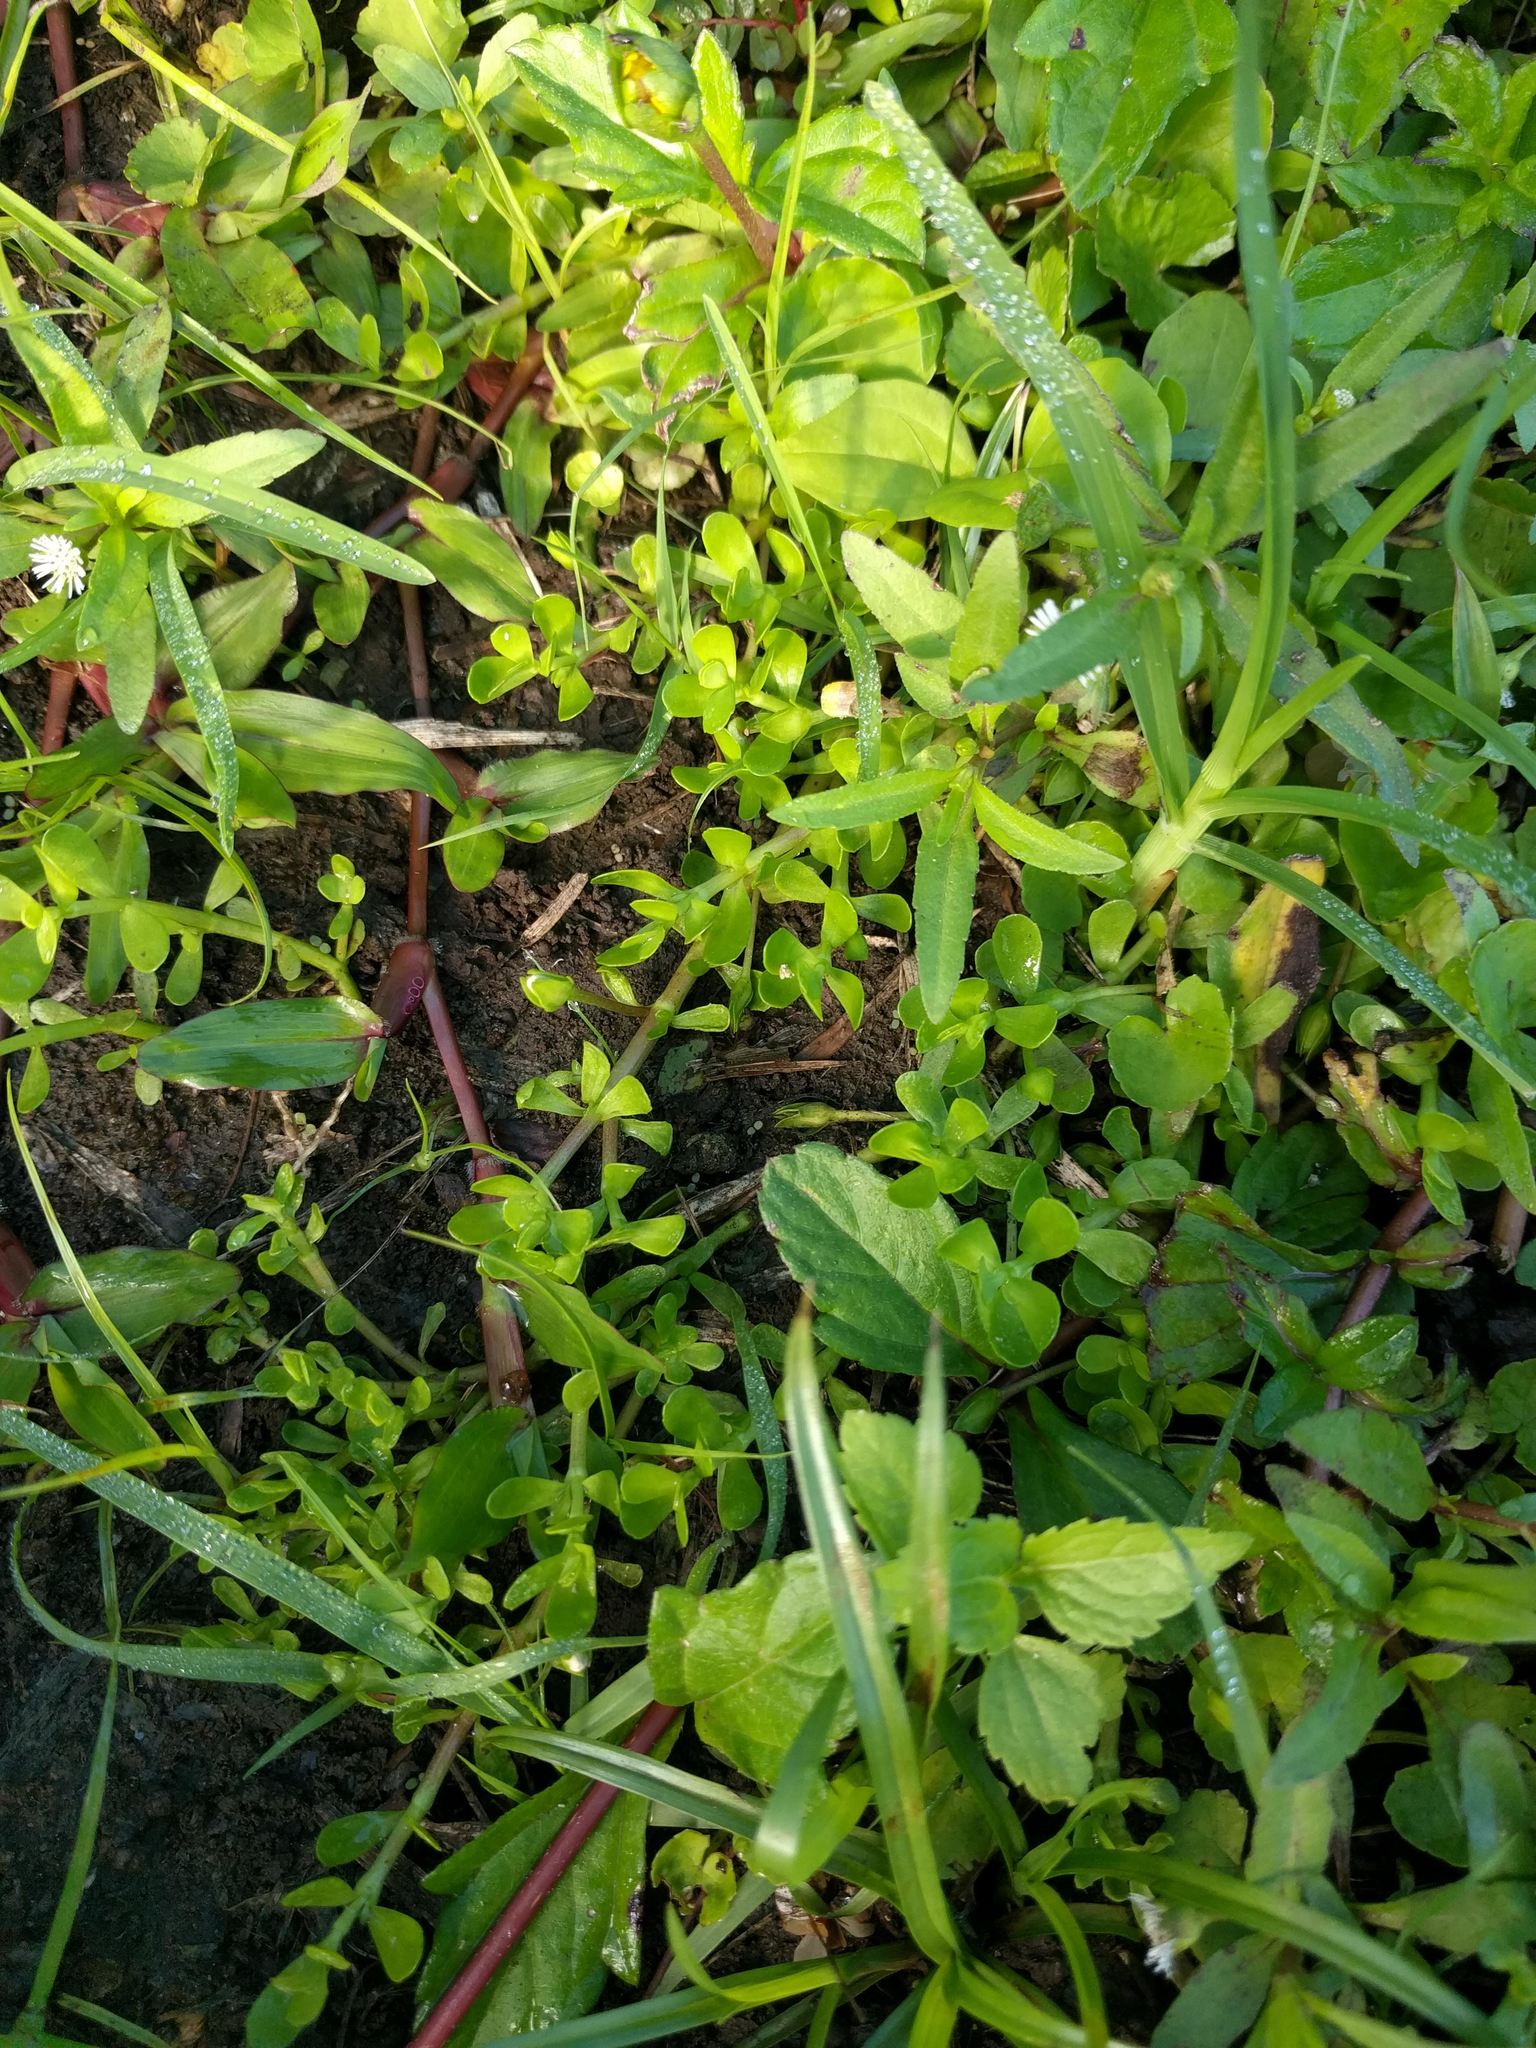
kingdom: Plantae
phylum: Tracheophyta
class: Magnoliopsida
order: Lamiales
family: Plantaginaceae
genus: Bacopa
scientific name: Bacopa monnieri
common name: Indian-pennywort
